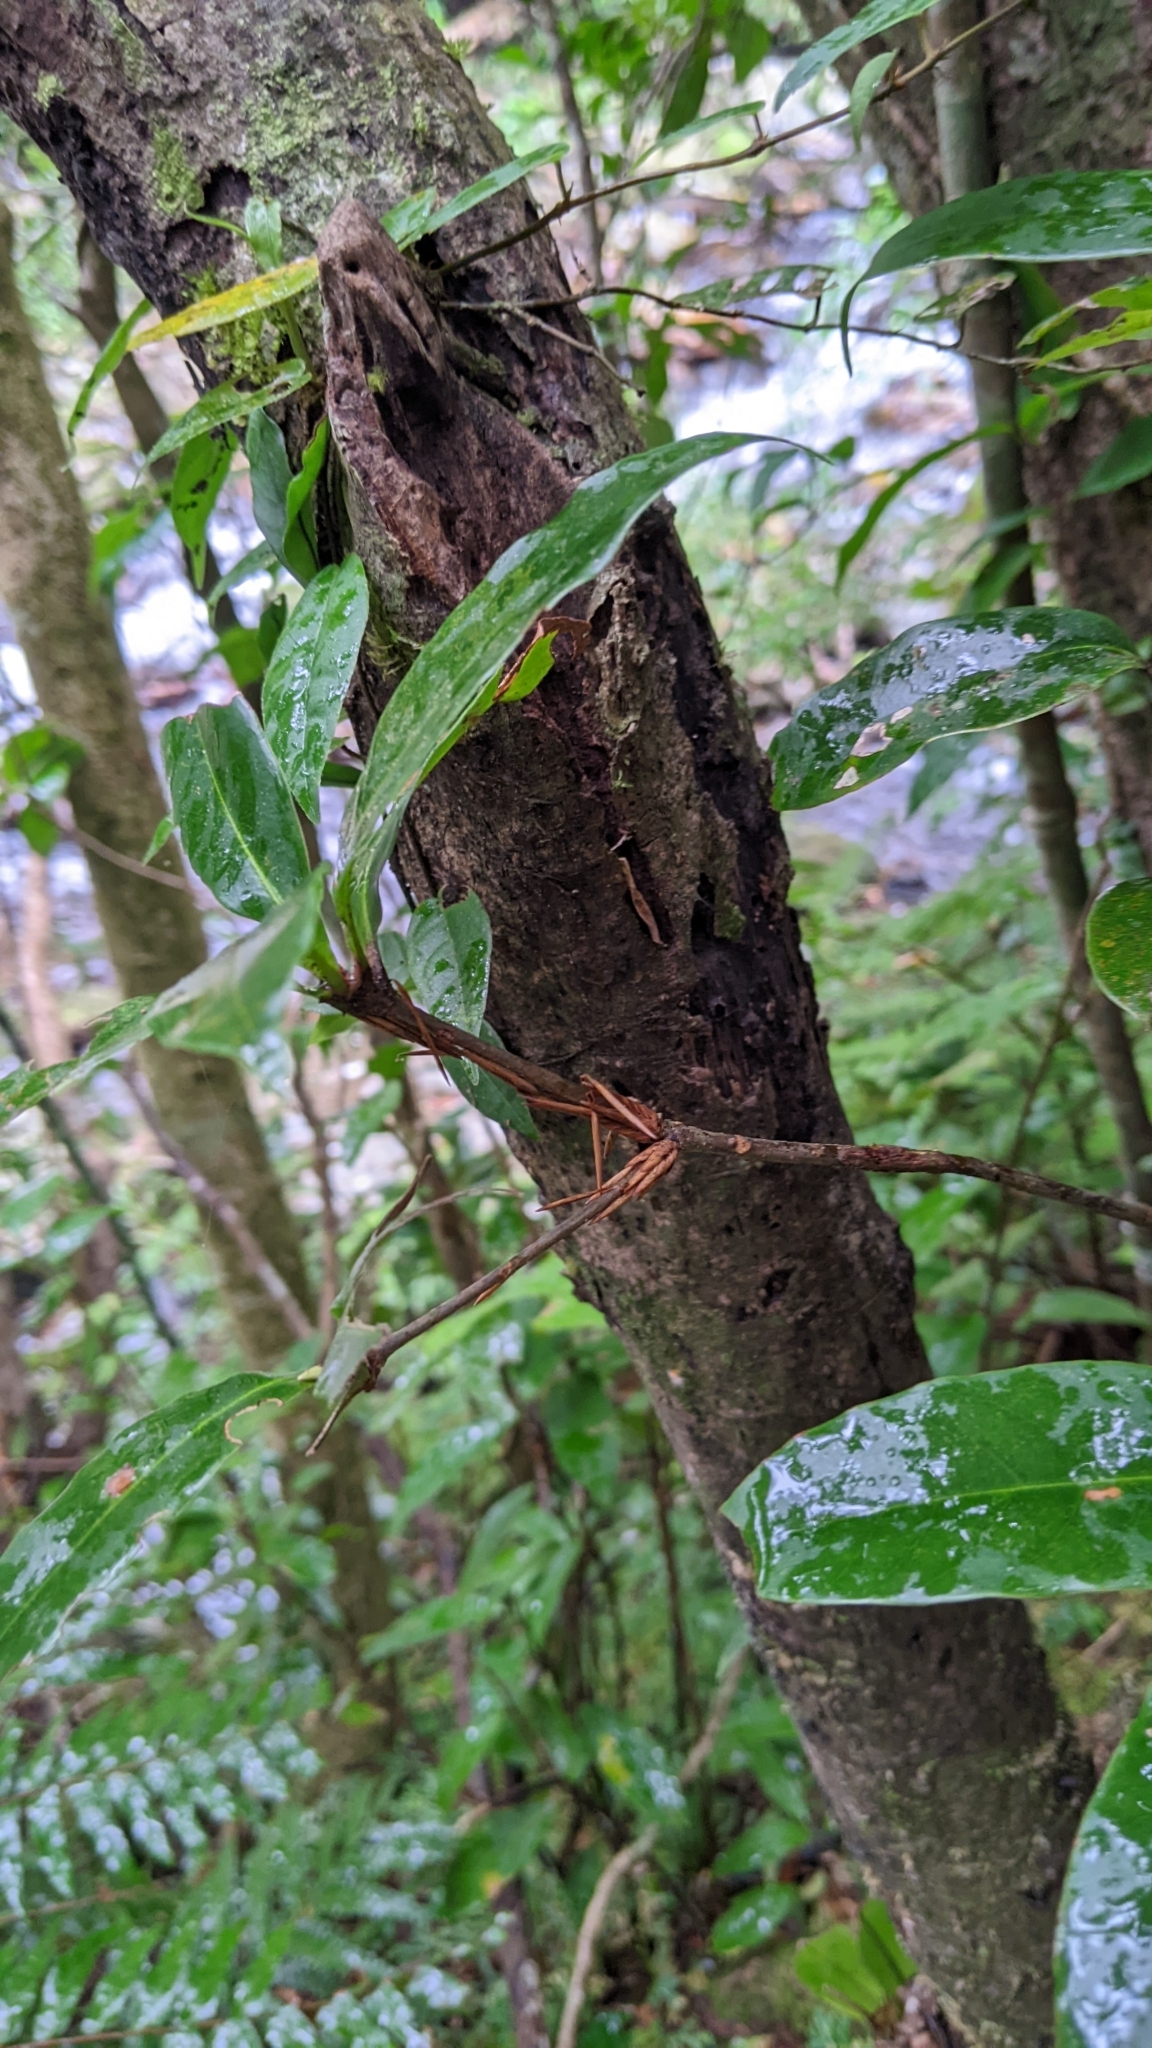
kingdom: Plantae
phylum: Tracheophyta
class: Magnoliopsida
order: Fagales
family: Fagaceae
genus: Quercus
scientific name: Quercus sessilifolia
